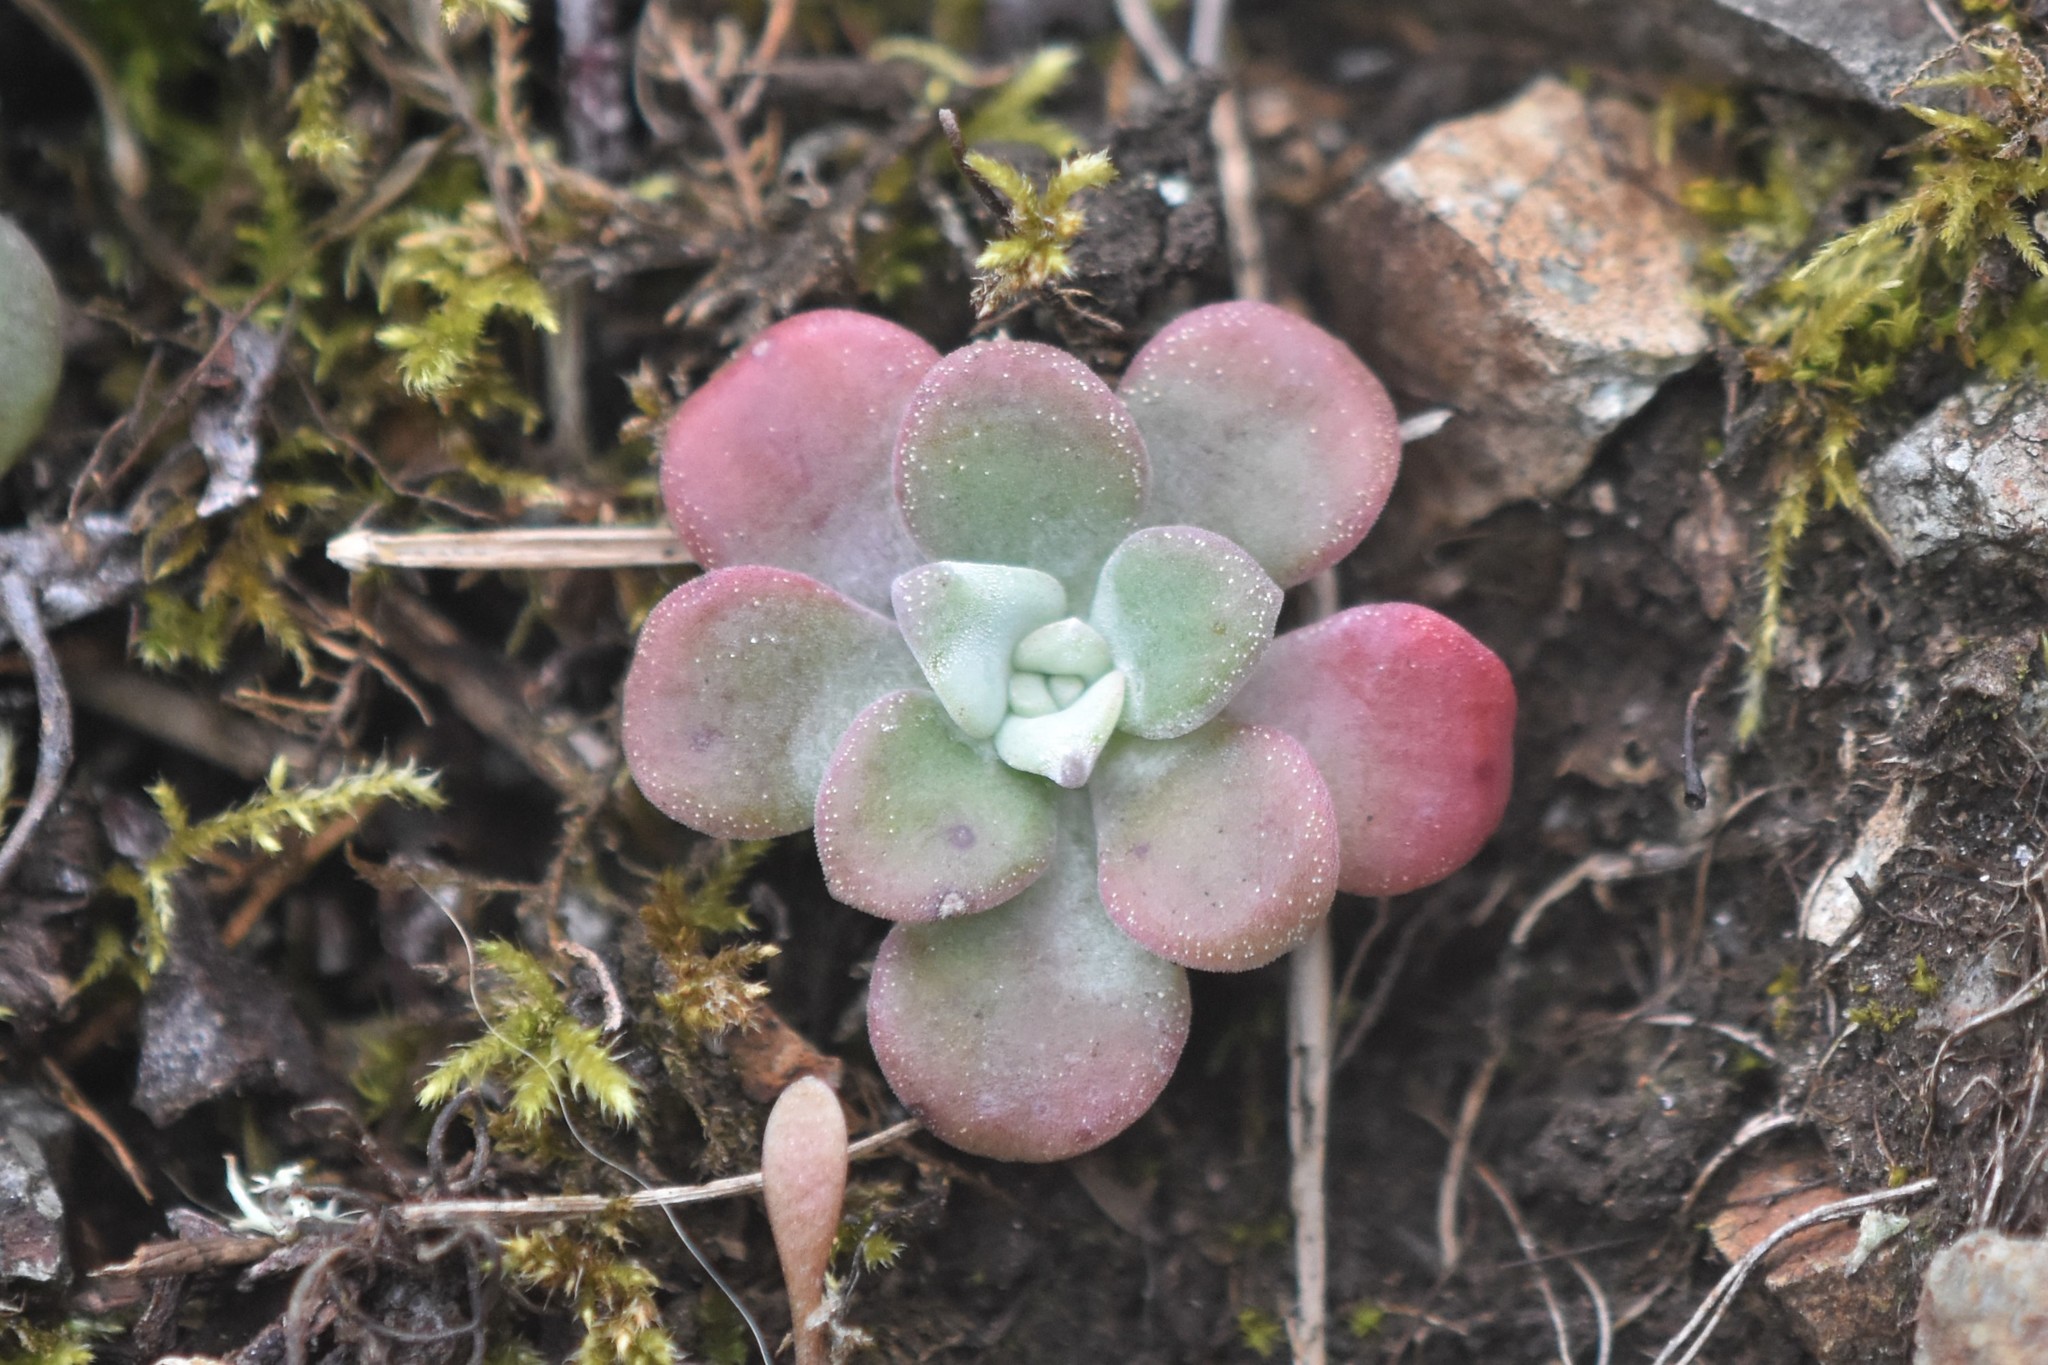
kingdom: Plantae
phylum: Tracheophyta
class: Magnoliopsida
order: Saxifragales
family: Crassulaceae
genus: Sedum
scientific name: Sedum spathulifolium
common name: Colorado stonecrop
